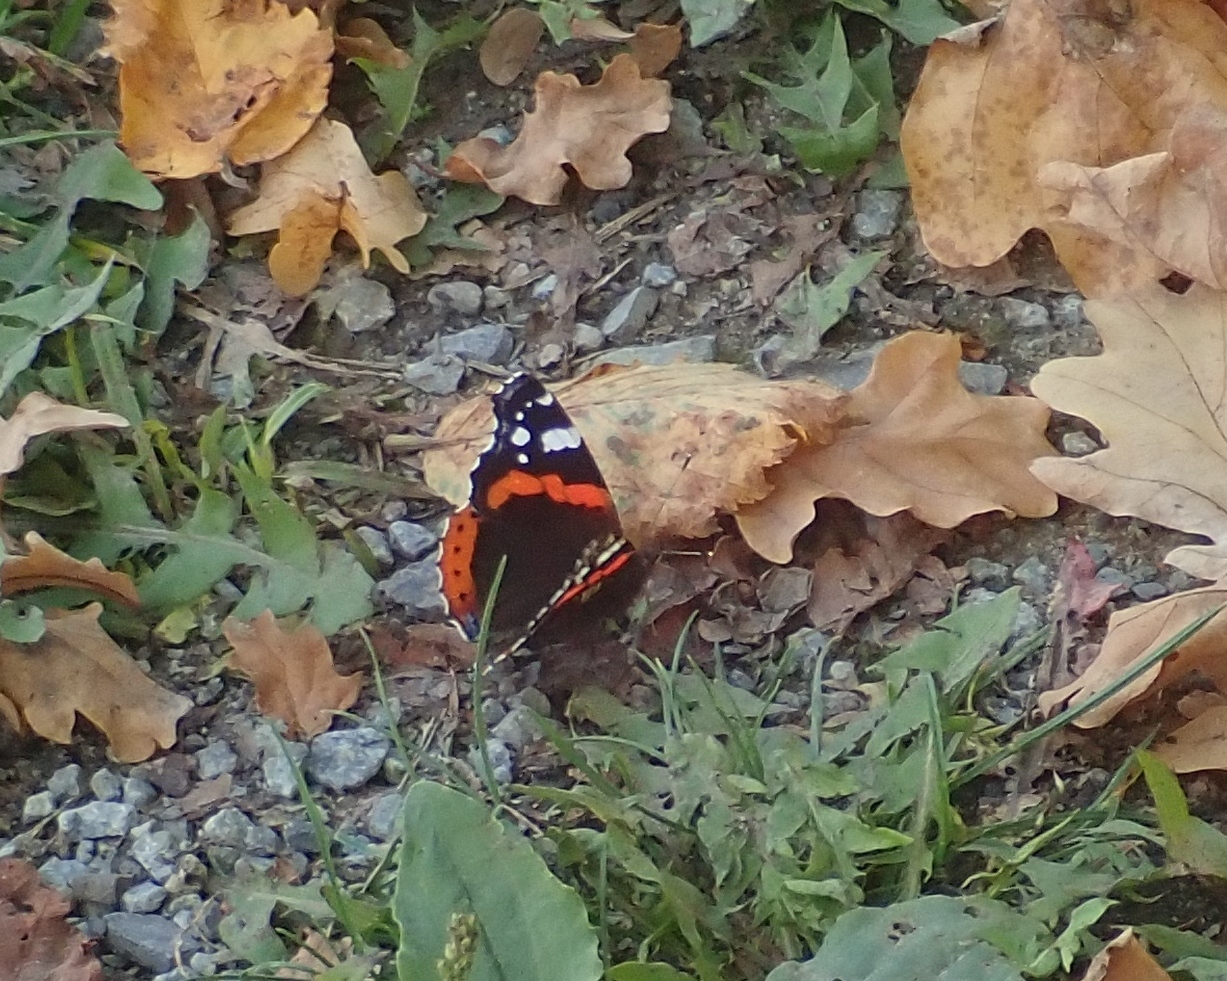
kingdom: Animalia
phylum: Arthropoda
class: Insecta
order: Lepidoptera
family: Nymphalidae
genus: Vanessa
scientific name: Vanessa atalanta
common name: Red admiral
